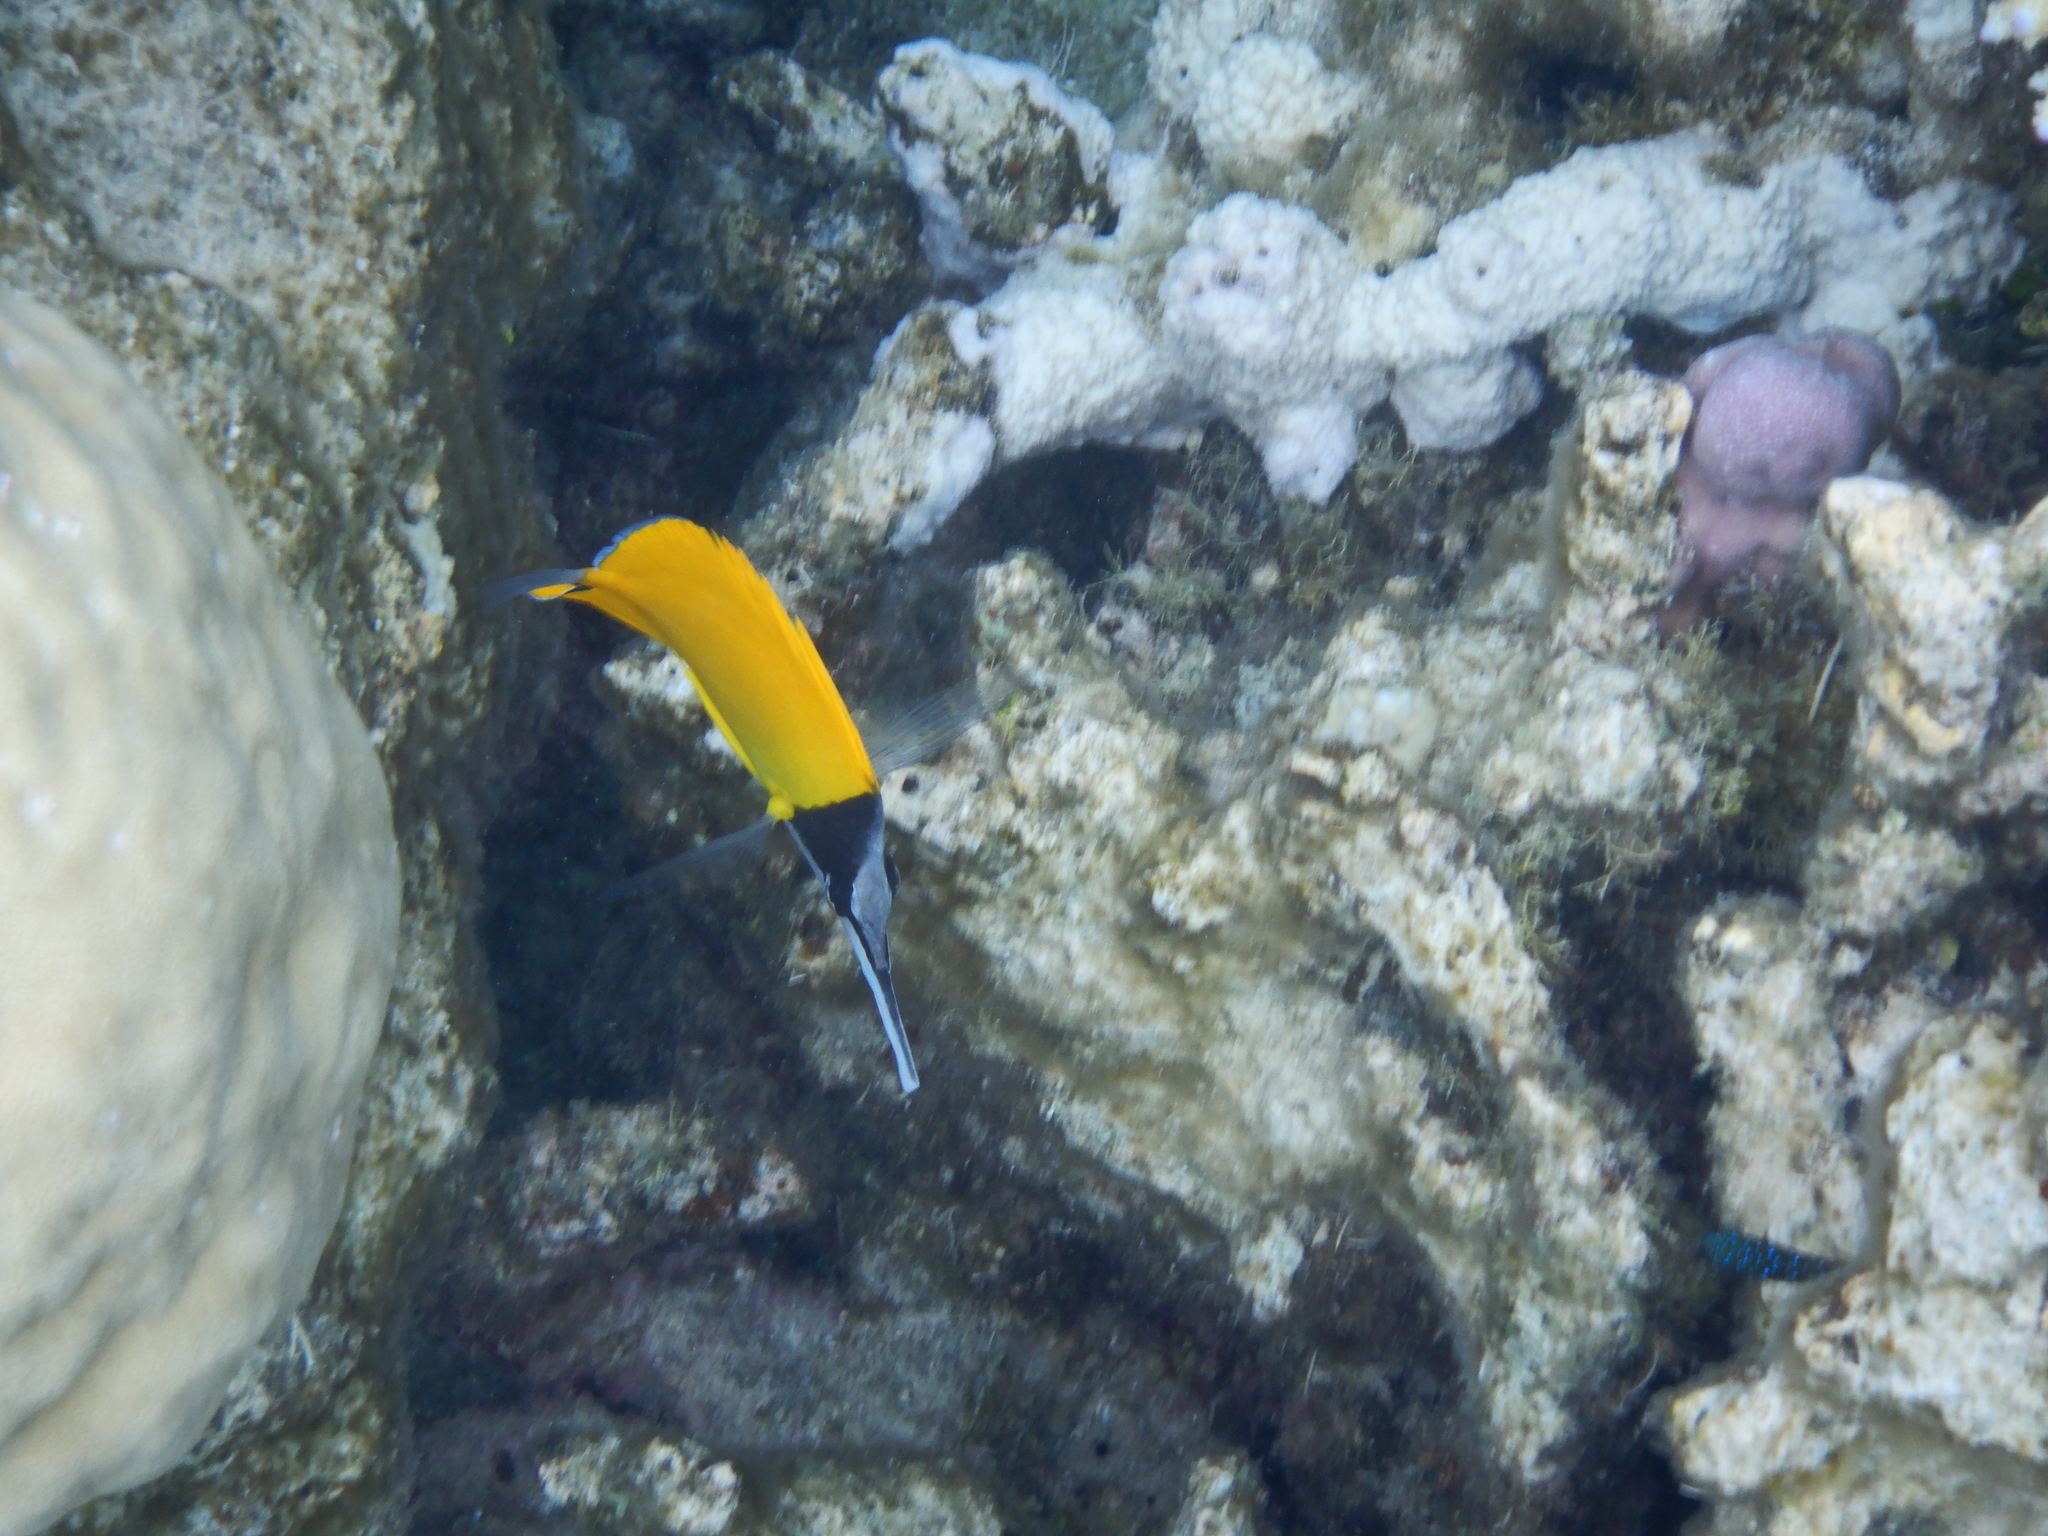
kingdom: Animalia
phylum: Chordata
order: Perciformes
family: Chaetodontidae
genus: Forcipiger
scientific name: Forcipiger flavissimus
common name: Forcepsfish
